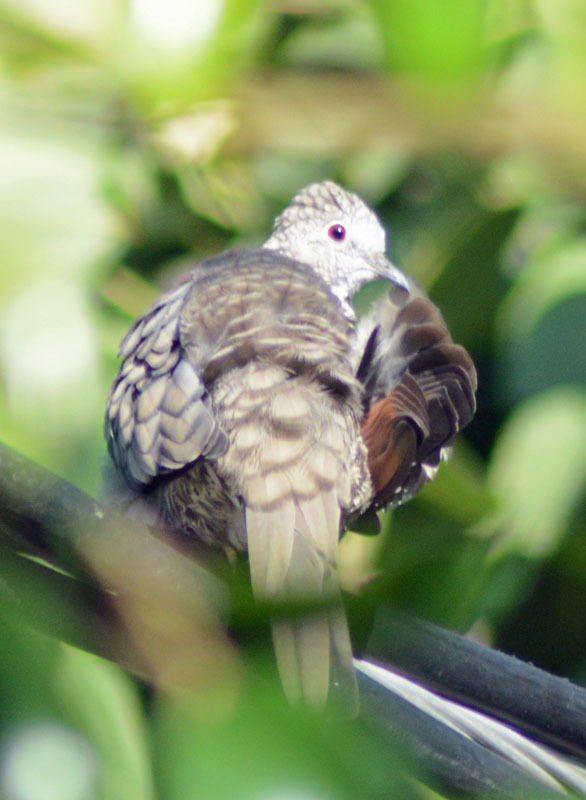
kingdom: Animalia
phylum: Chordata
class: Aves
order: Columbiformes
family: Columbidae
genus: Columbina
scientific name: Columbina inca
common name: Inca dove
